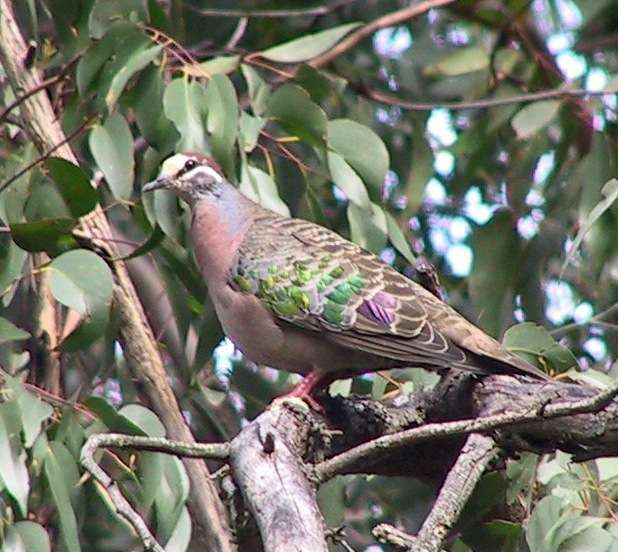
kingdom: Animalia
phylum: Chordata
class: Aves
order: Columbiformes
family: Columbidae
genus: Phaps
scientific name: Phaps chalcoptera
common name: Common bronzewing
